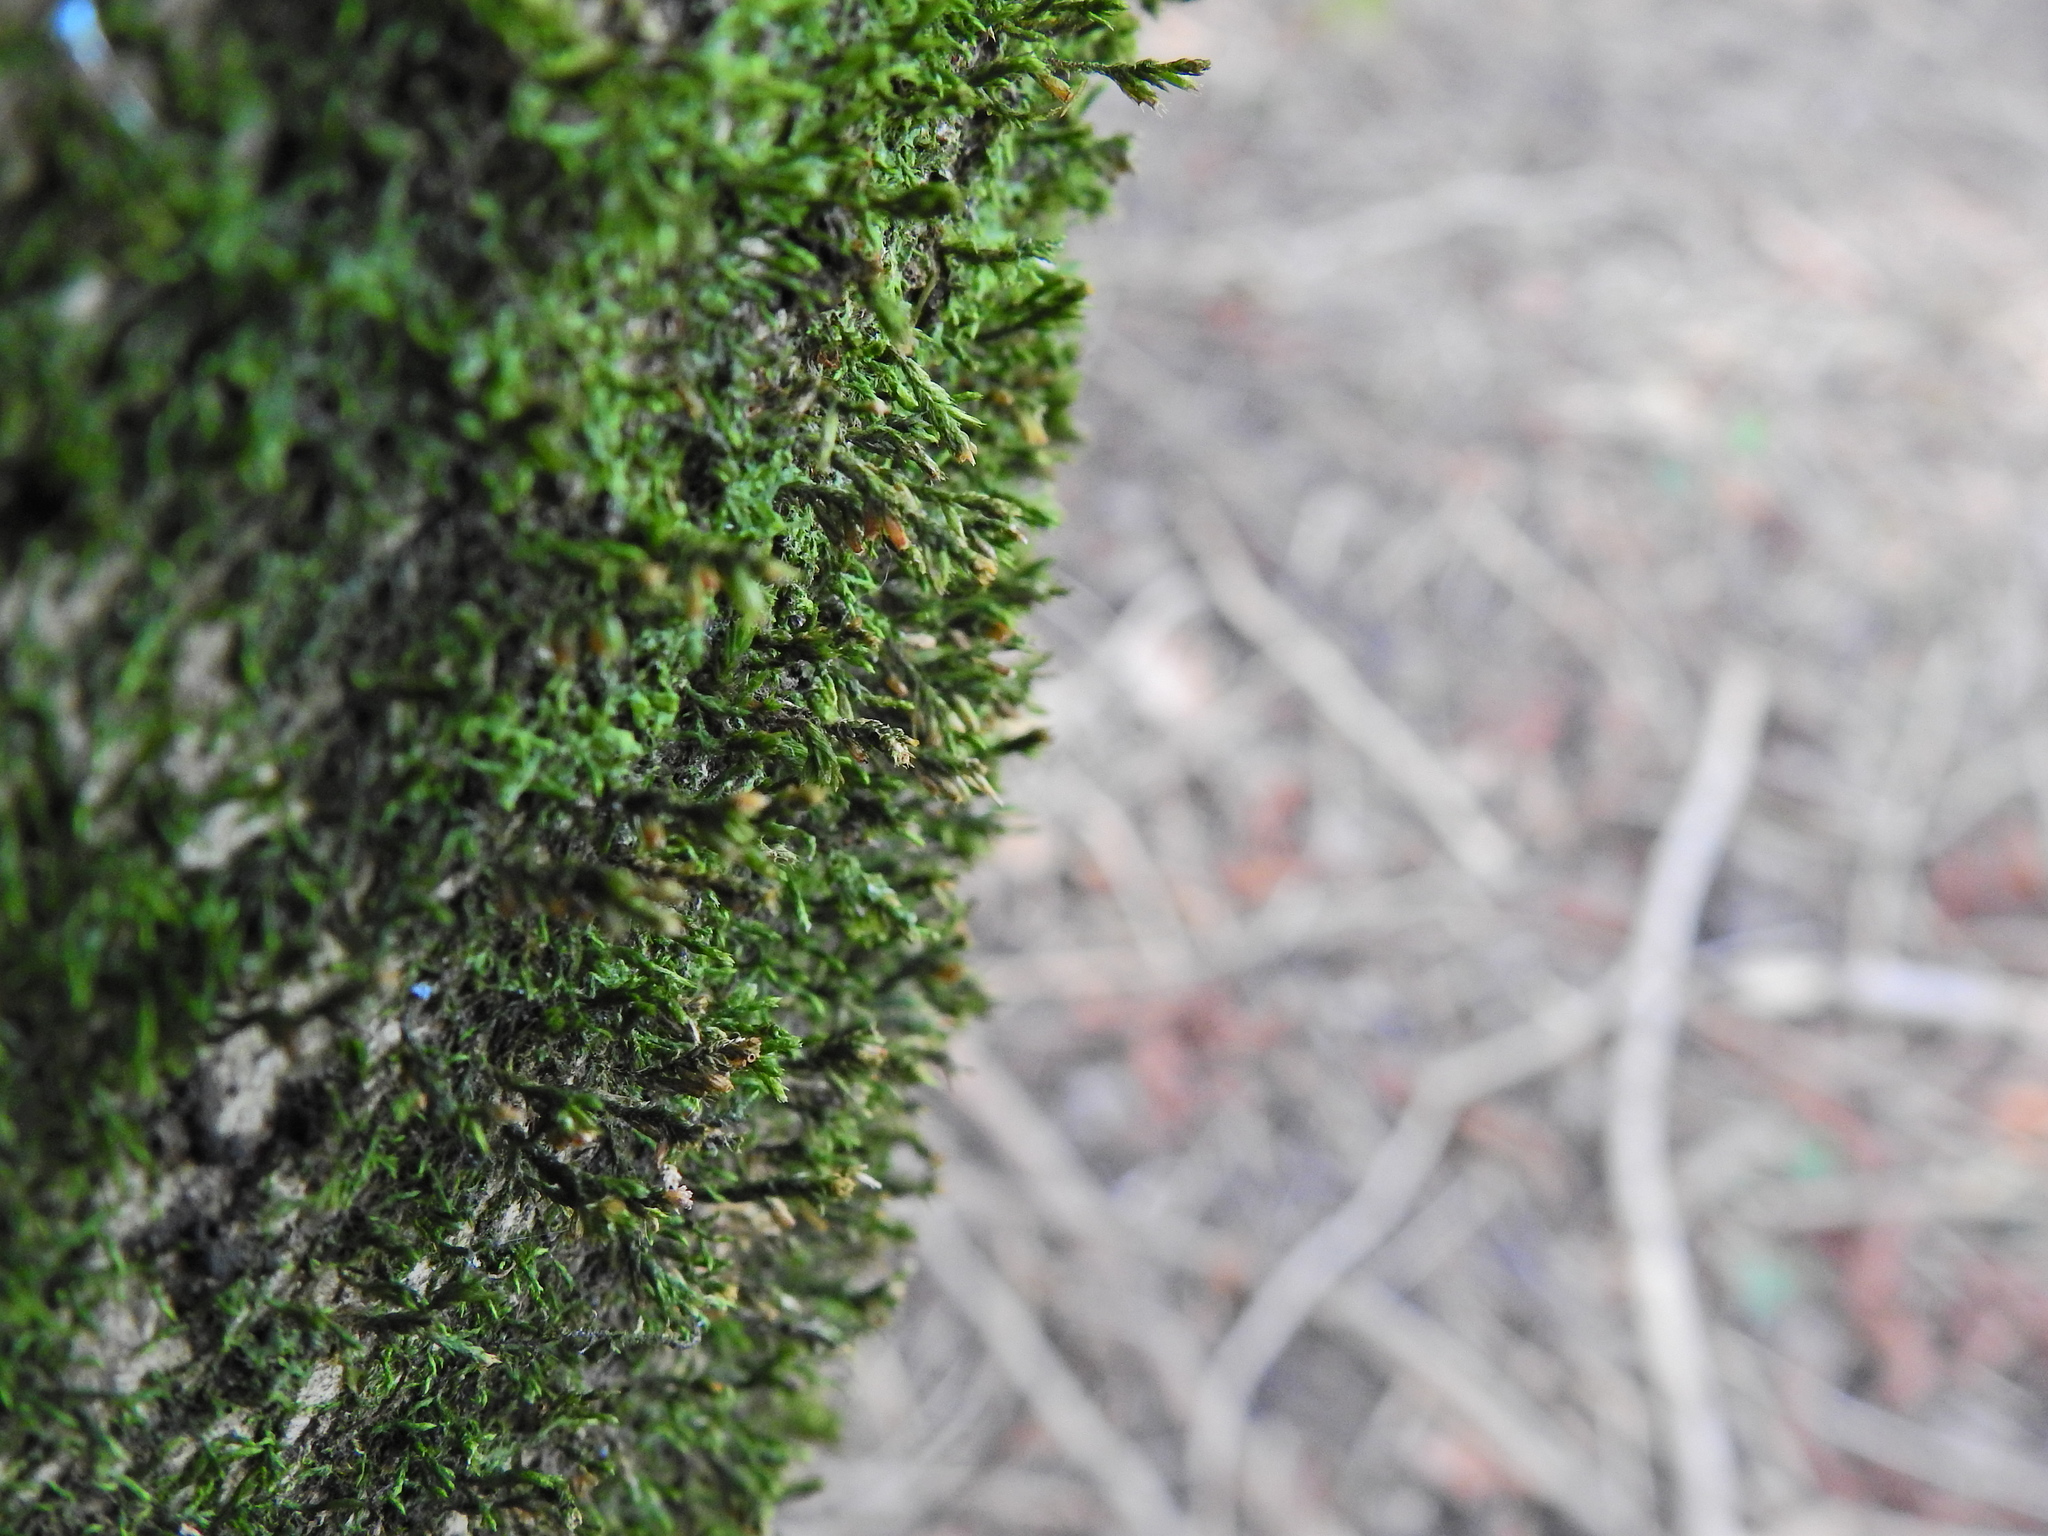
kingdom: Plantae
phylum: Bryophyta
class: Bryopsida
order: Hypnales
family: Cryphaeaceae
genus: Cryphaea
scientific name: Cryphaea heteromalla
